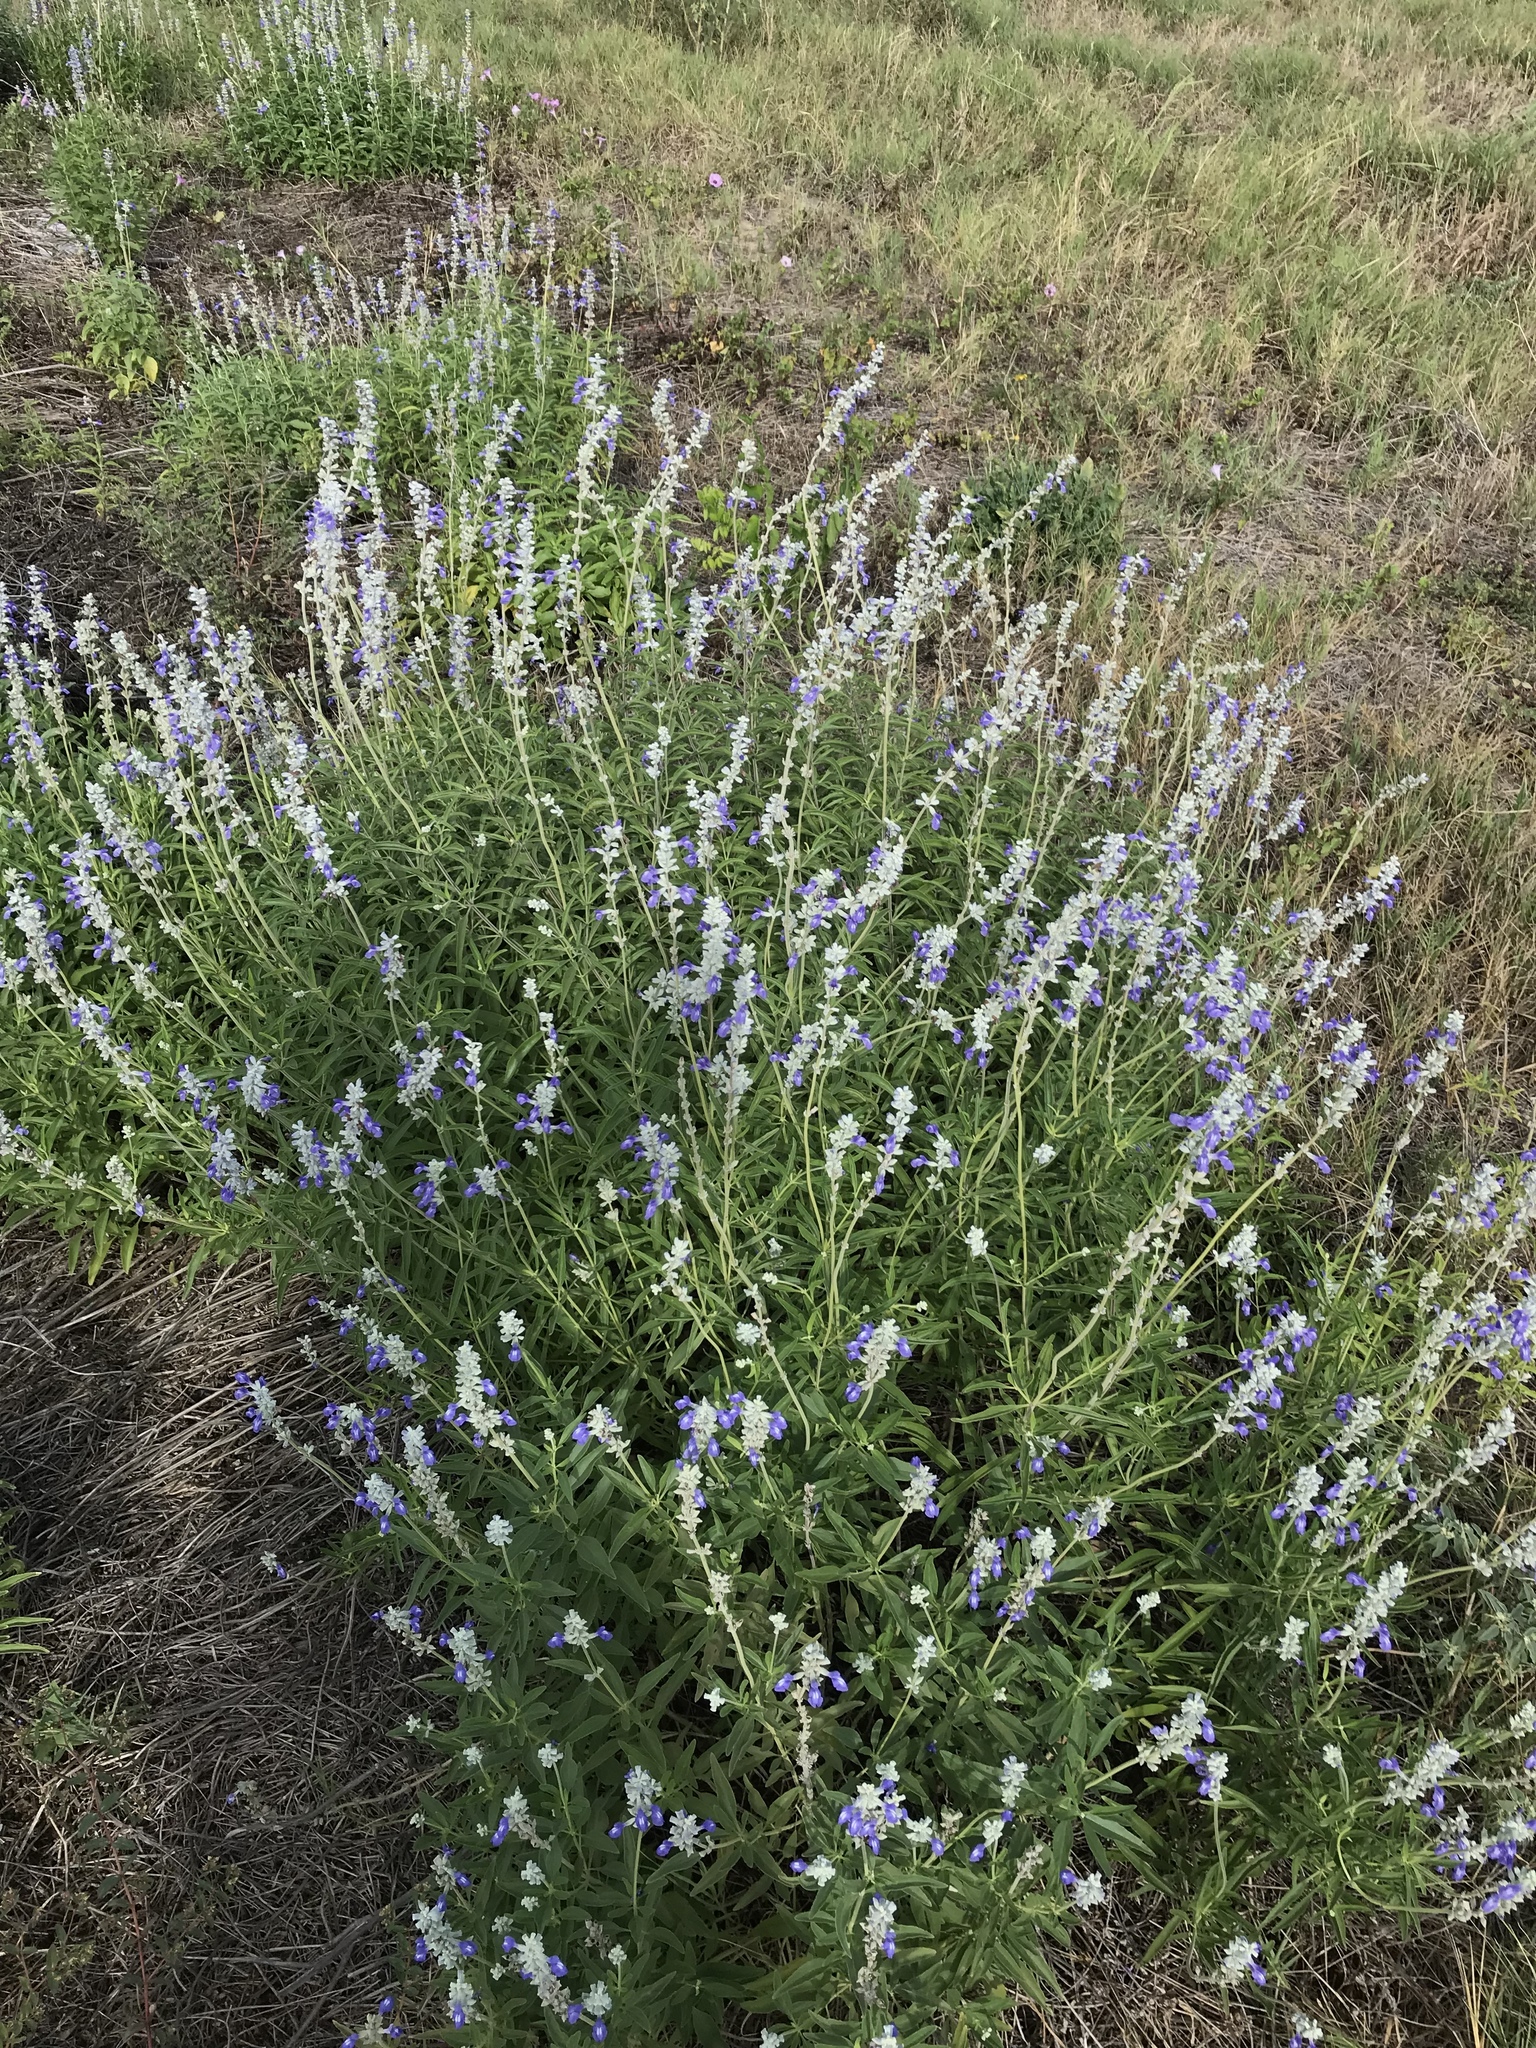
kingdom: Plantae
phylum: Tracheophyta
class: Magnoliopsida
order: Lamiales
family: Lamiaceae
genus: Salvia
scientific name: Salvia farinacea
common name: Mealy sage
